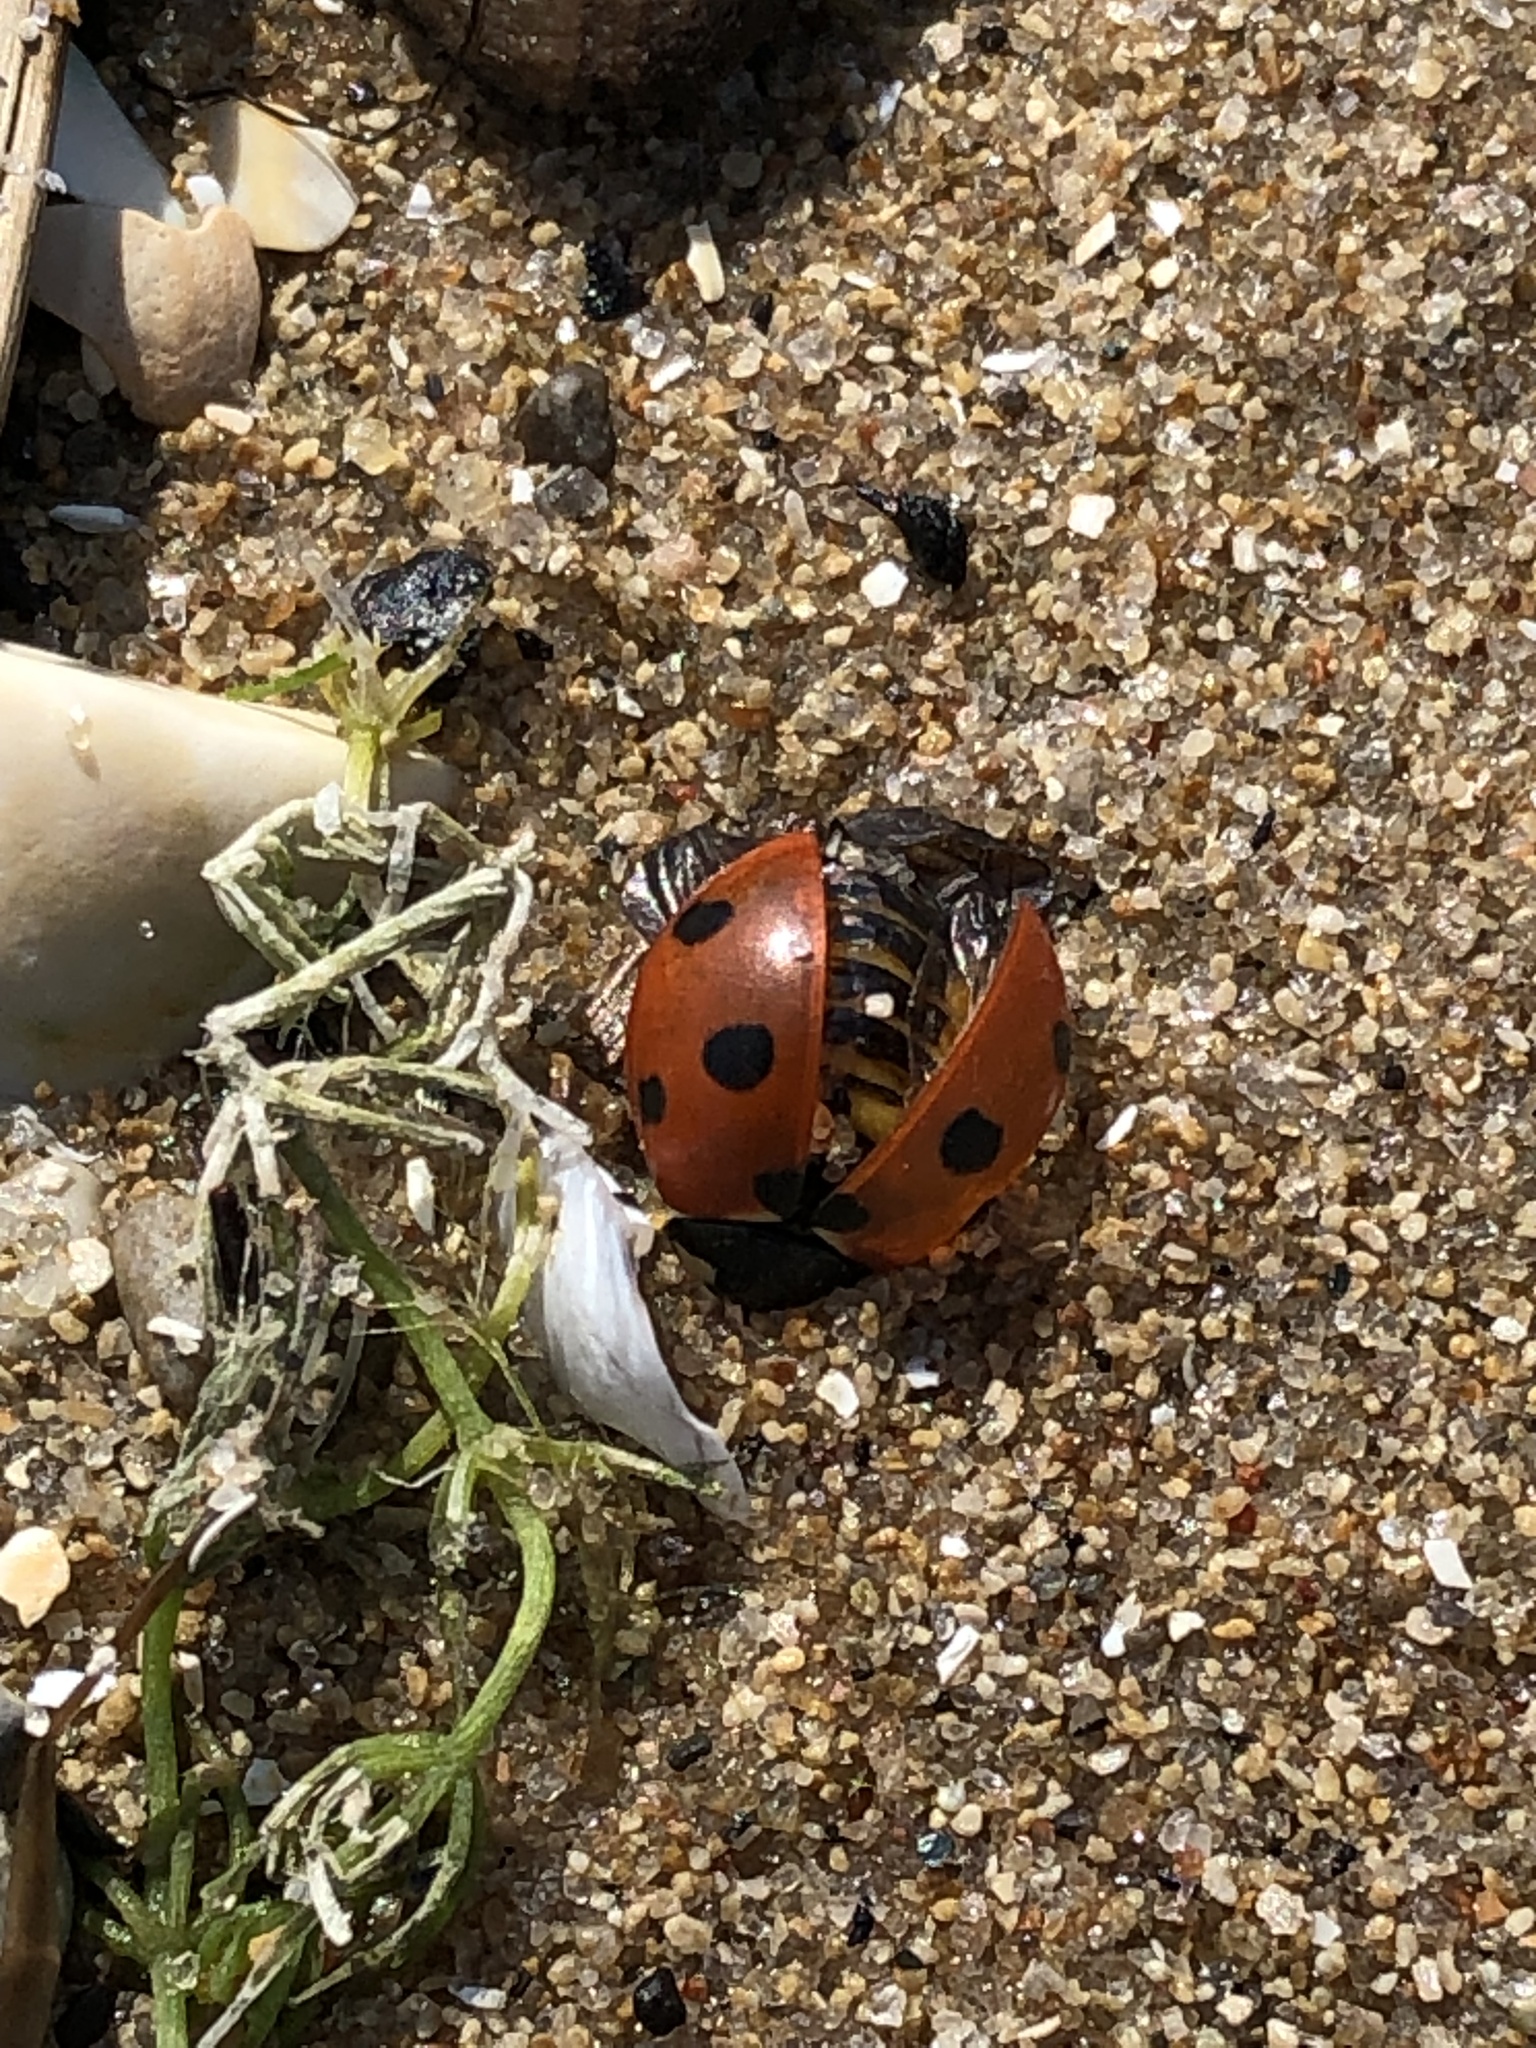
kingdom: Animalia
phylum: Arthropoda
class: Insecta
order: Coleoptera
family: Coccinellidae
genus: Coccinella
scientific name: Coccinella septempunctata
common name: Sevenspotted lady beetle
